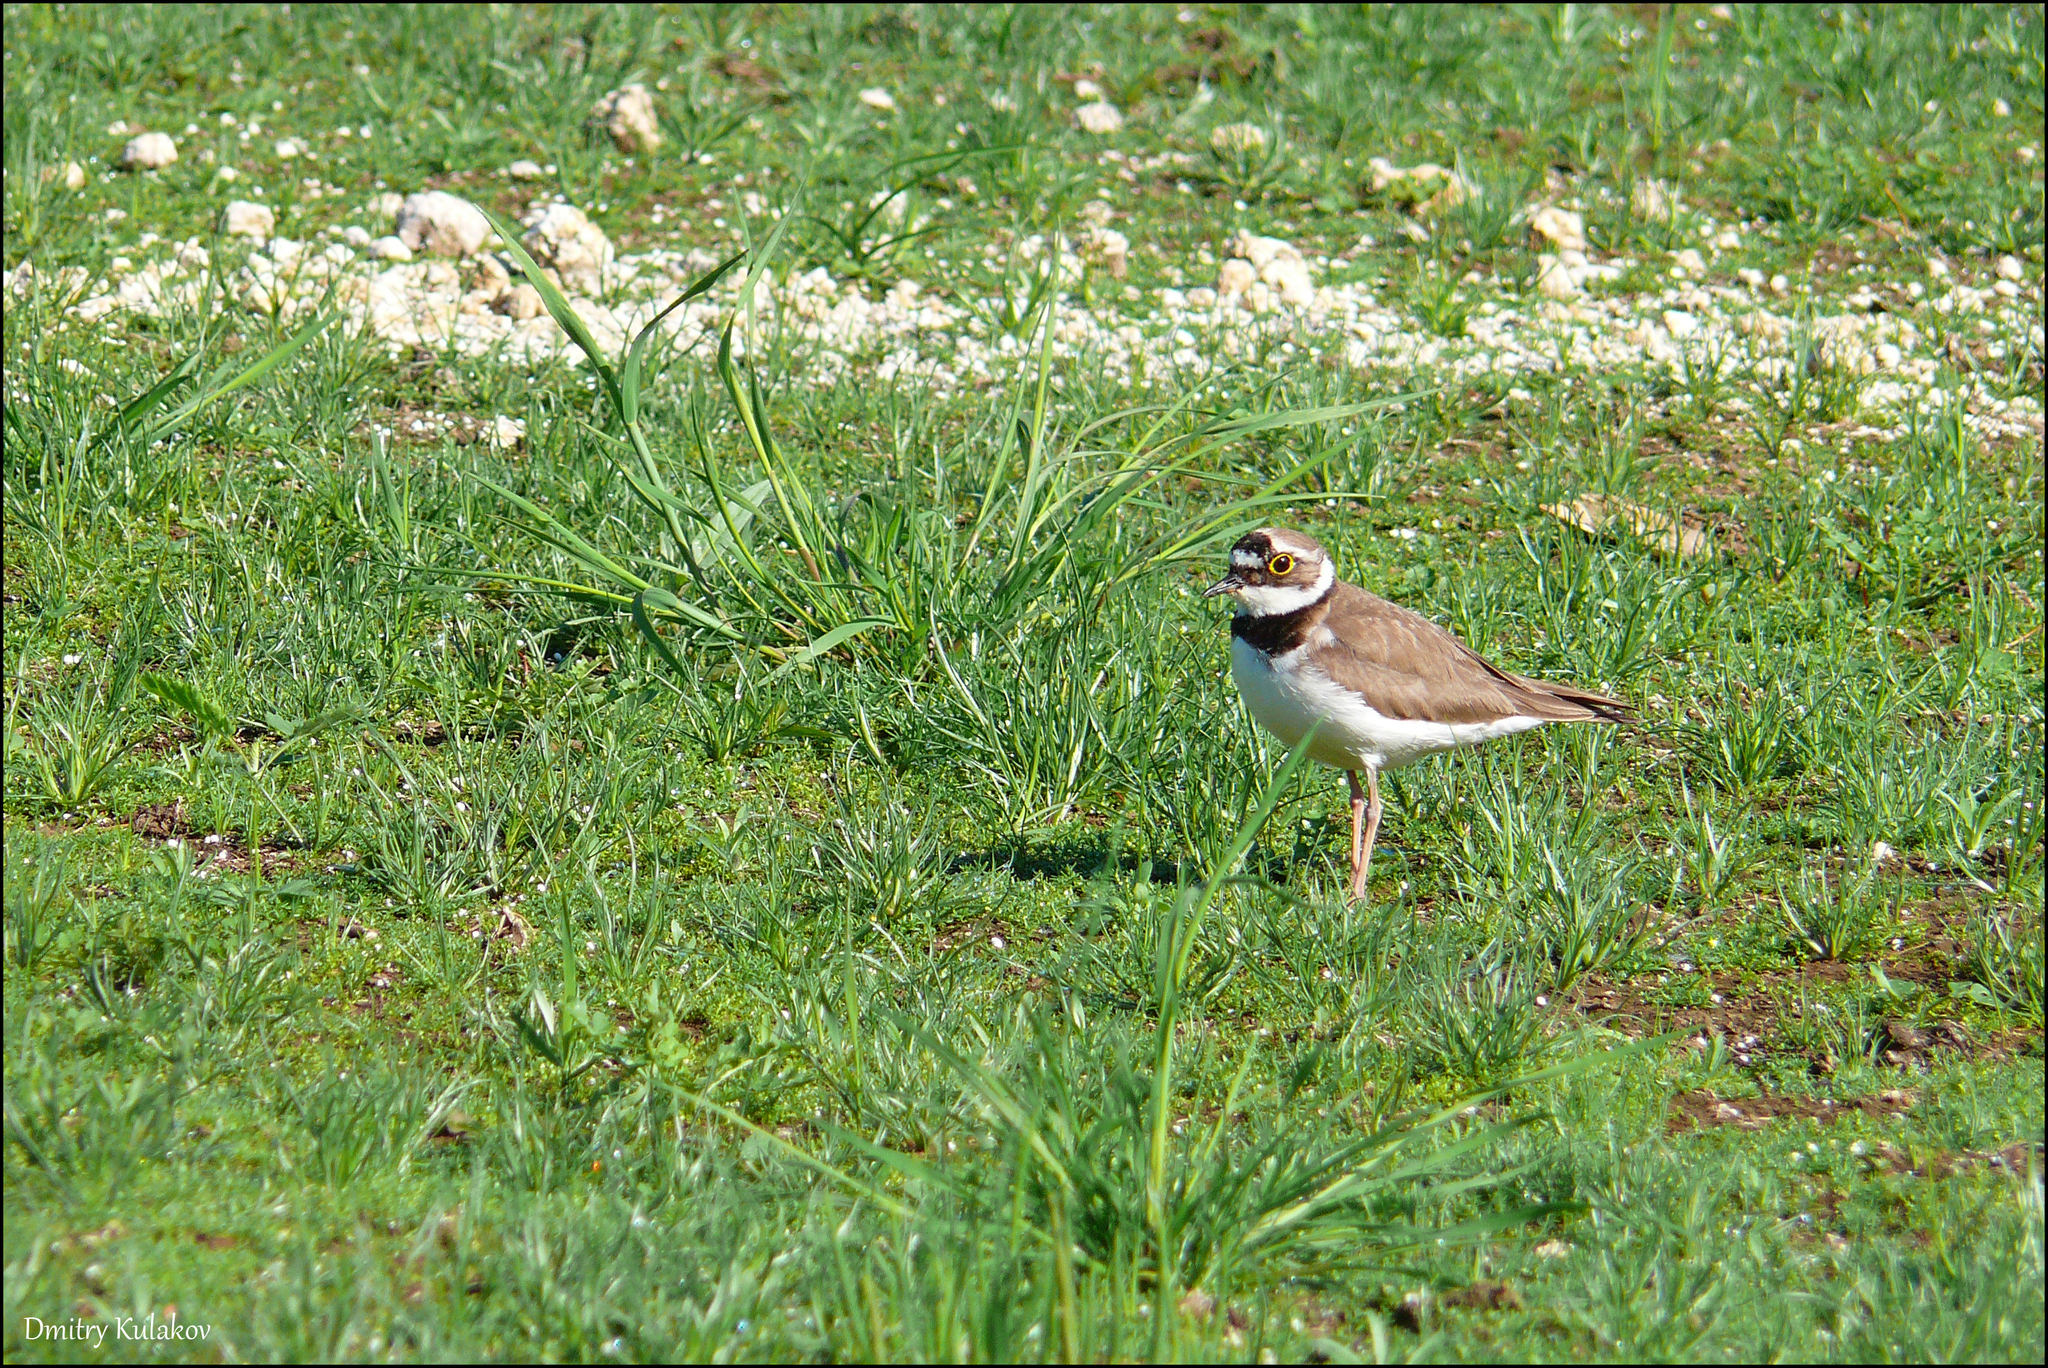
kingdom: Animalia
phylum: Chordata
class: Aves
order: Charadriiformes
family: Charadriidae
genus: Charadrius
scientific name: Charadrius dubius
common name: Little ringed plover
